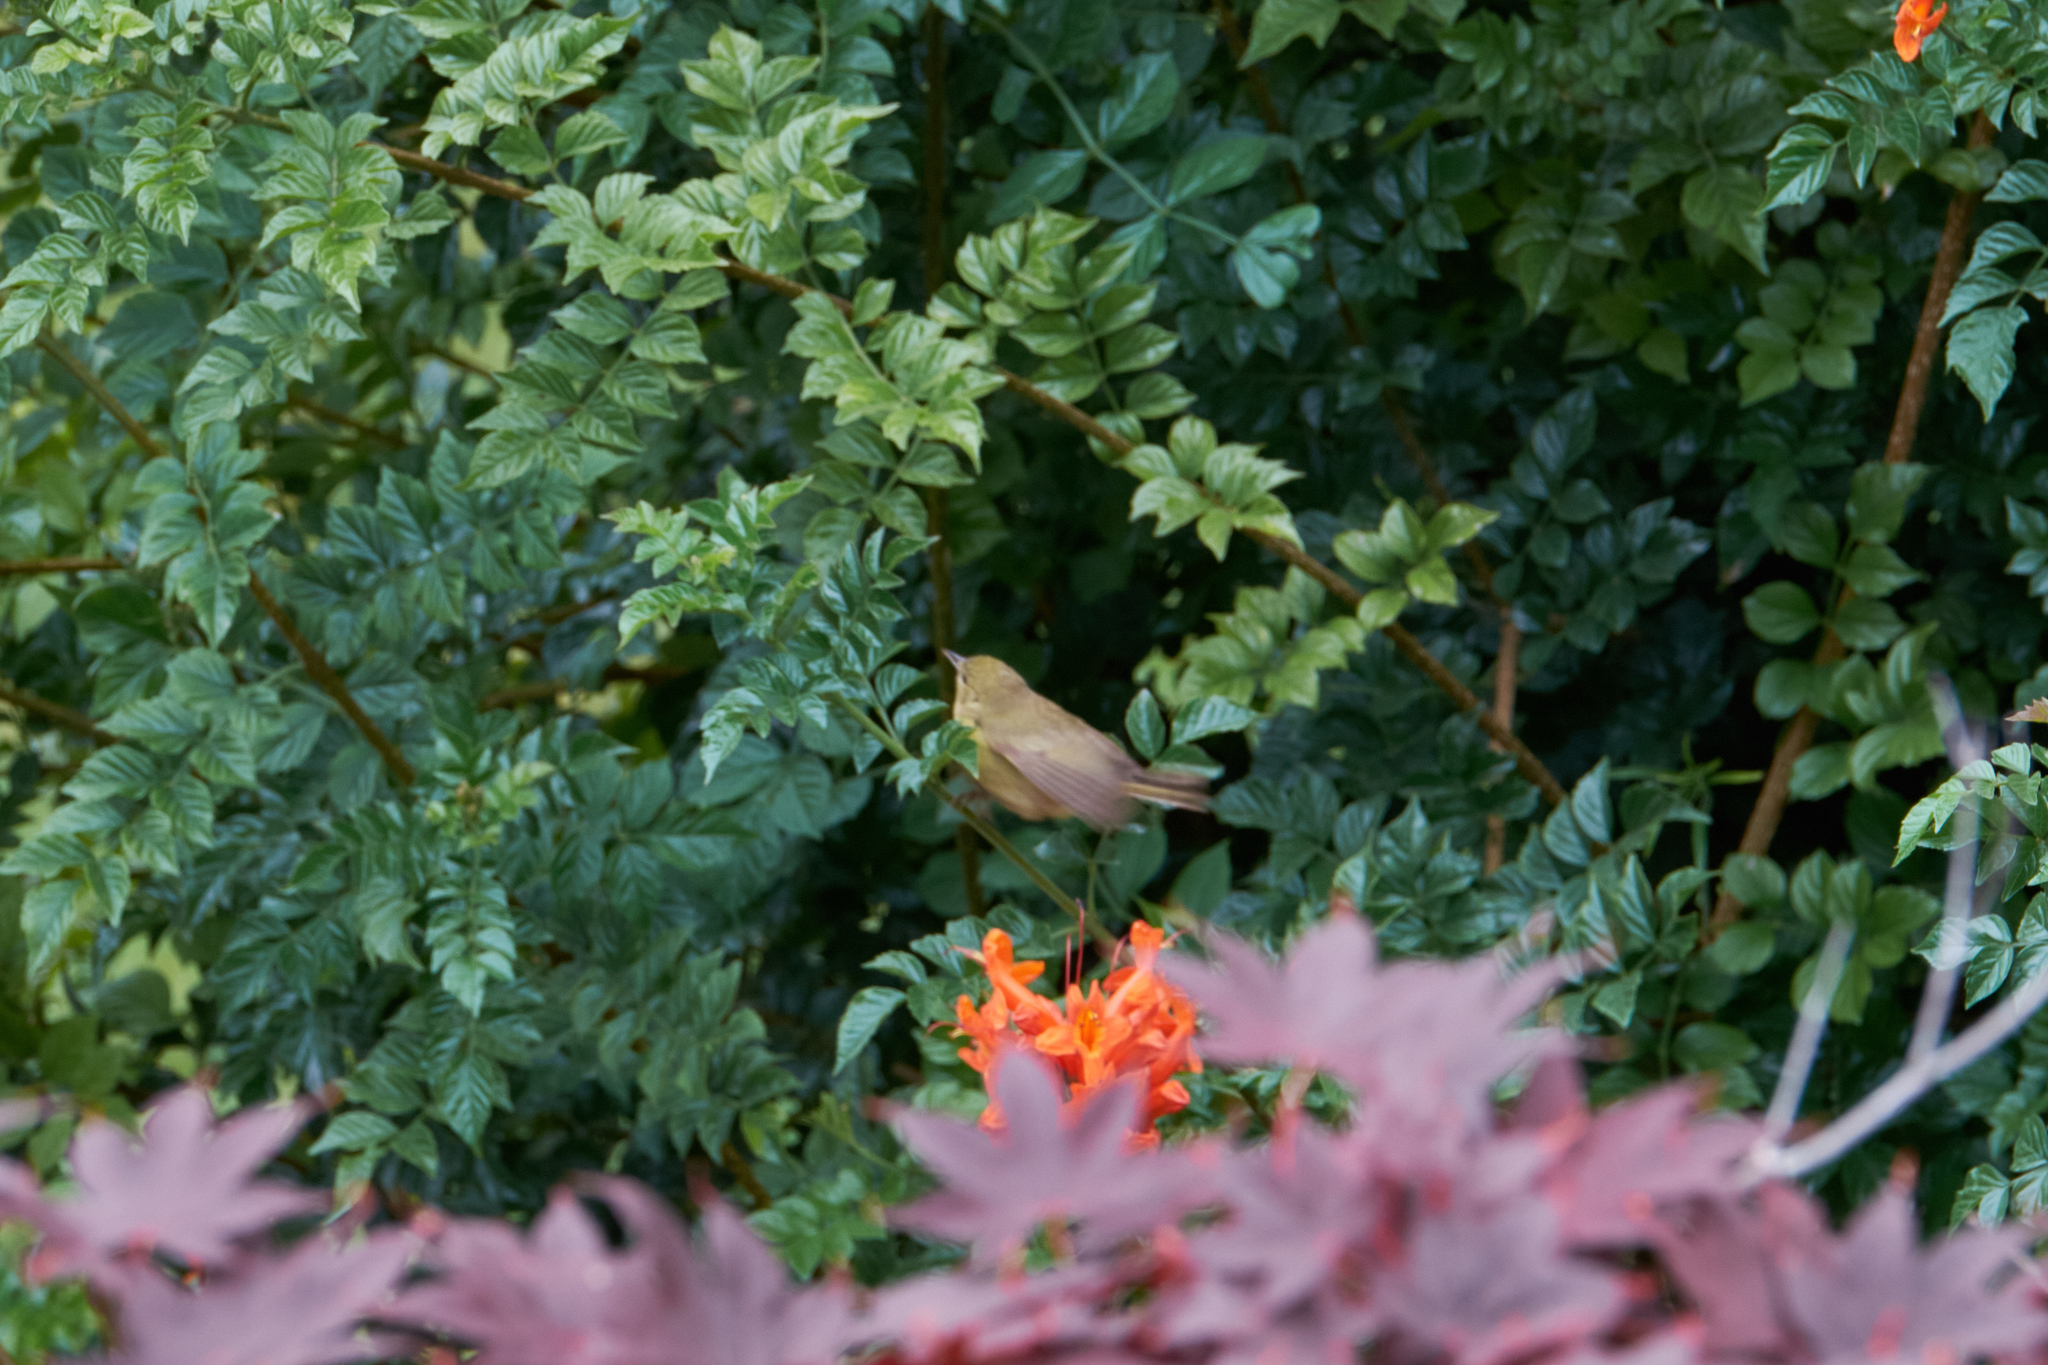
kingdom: Animalia
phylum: Chordata
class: Aves
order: Passeriformes
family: Parulidae
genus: Leiothlypis
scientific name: Leiothlypis celata
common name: Orange-crowned warbler
